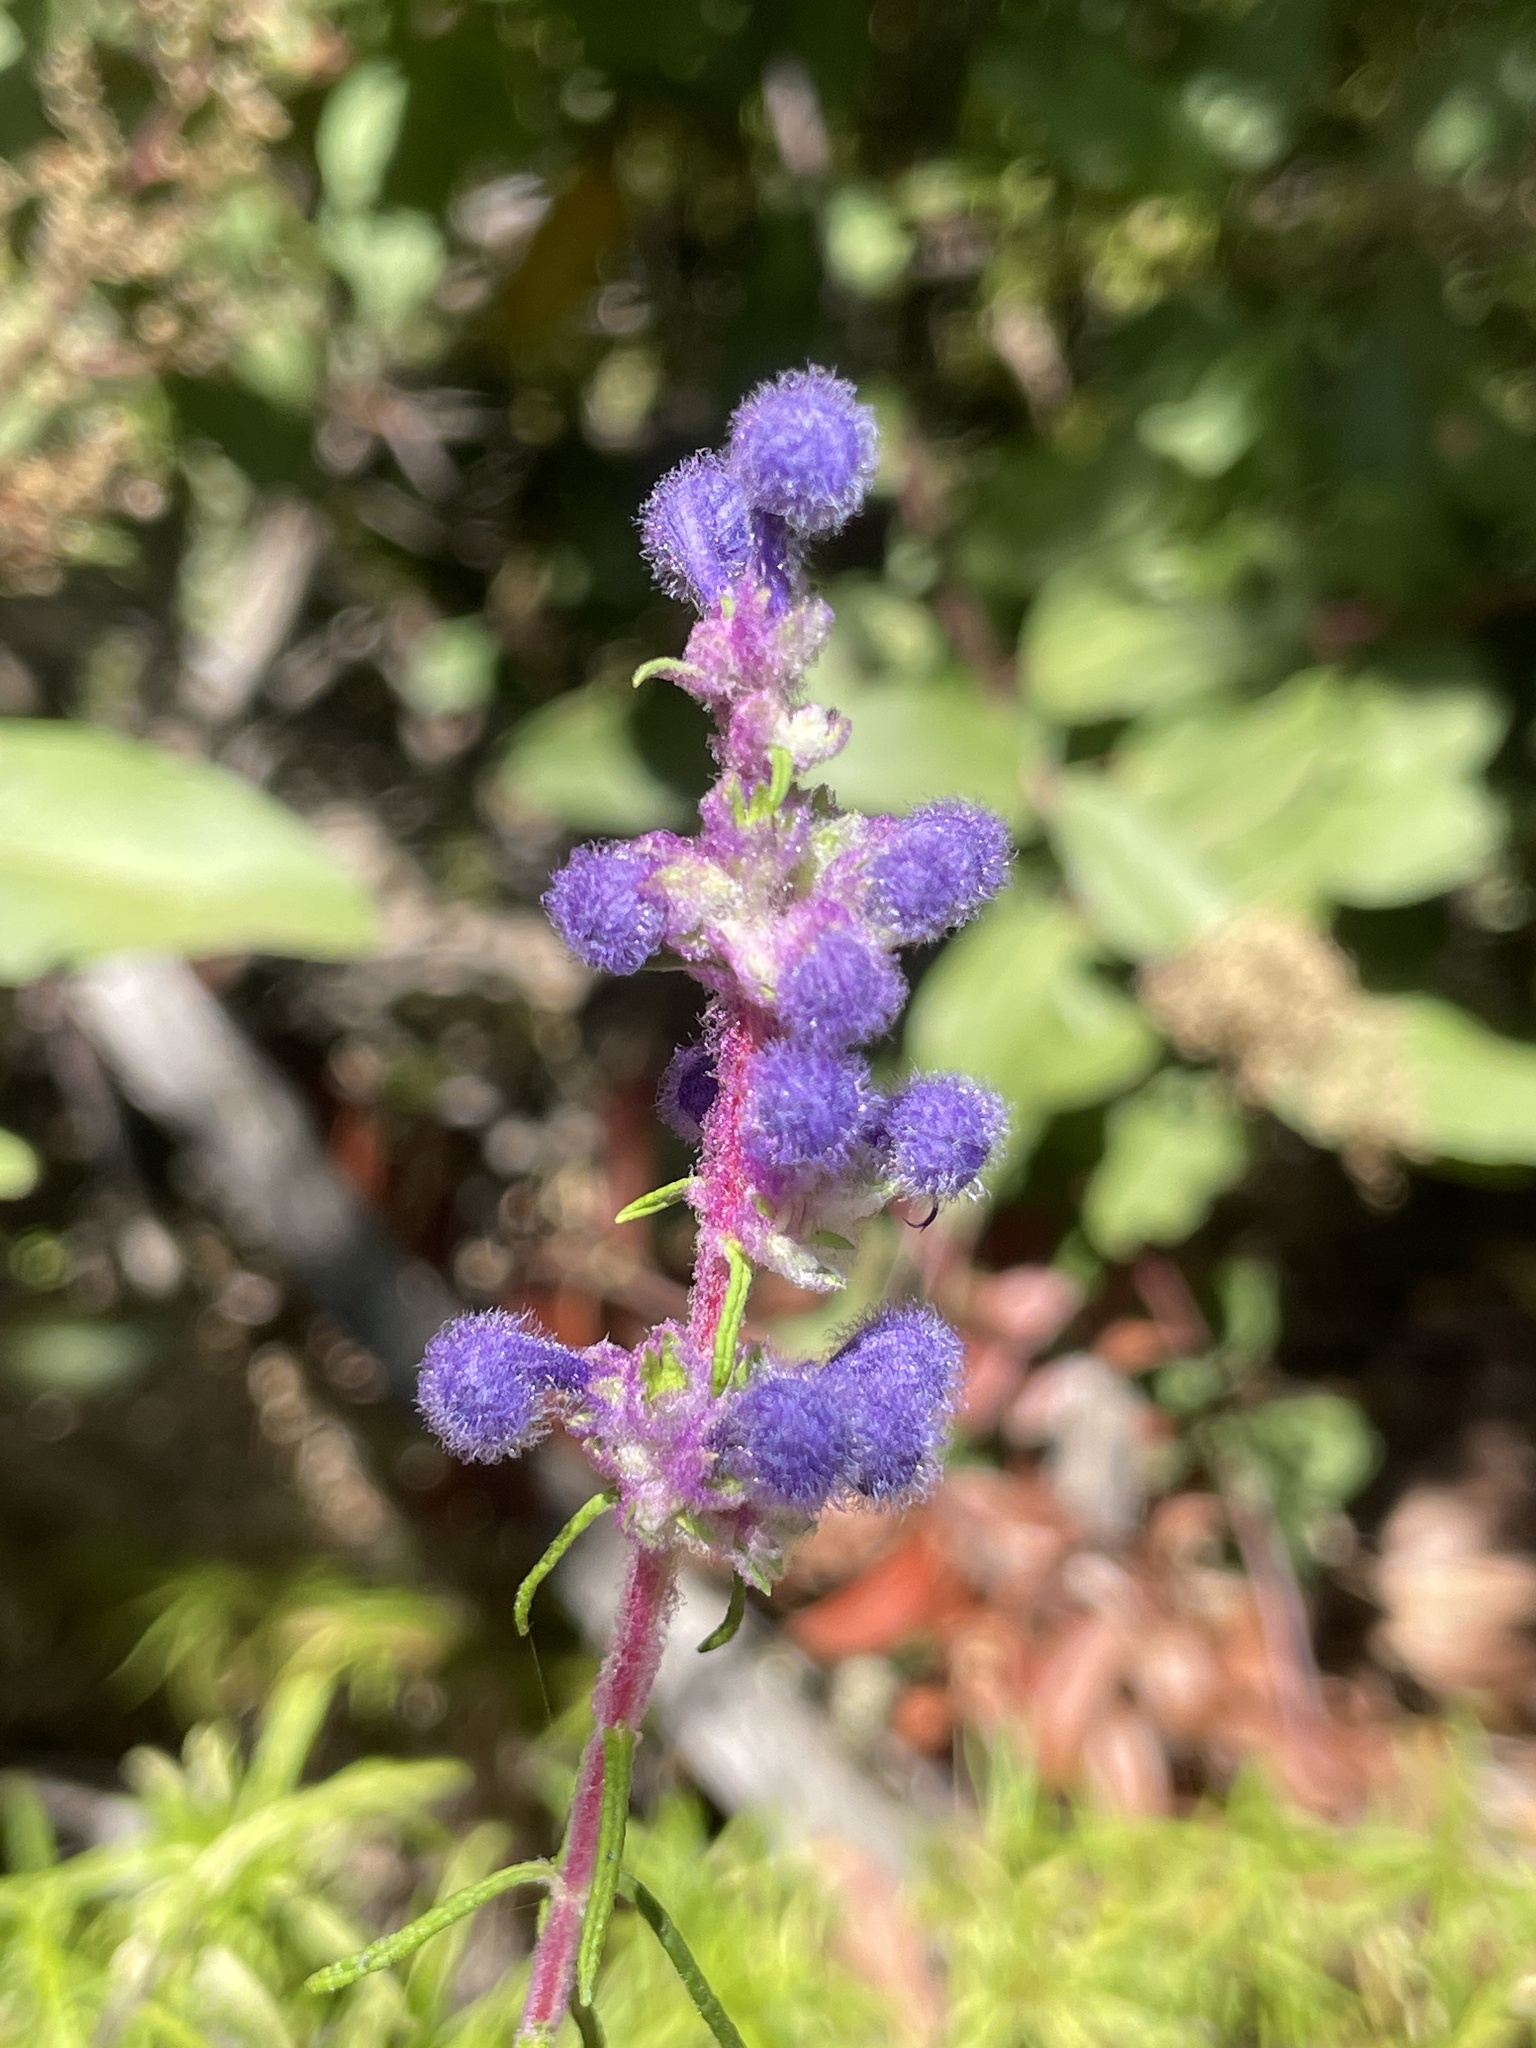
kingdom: Plantae
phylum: Tracheophyta
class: Magnoliopsida
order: Lamiales
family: Lamiaceae
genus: Trichostema
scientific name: Trichostema lanatum
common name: Woolly bluecurls
